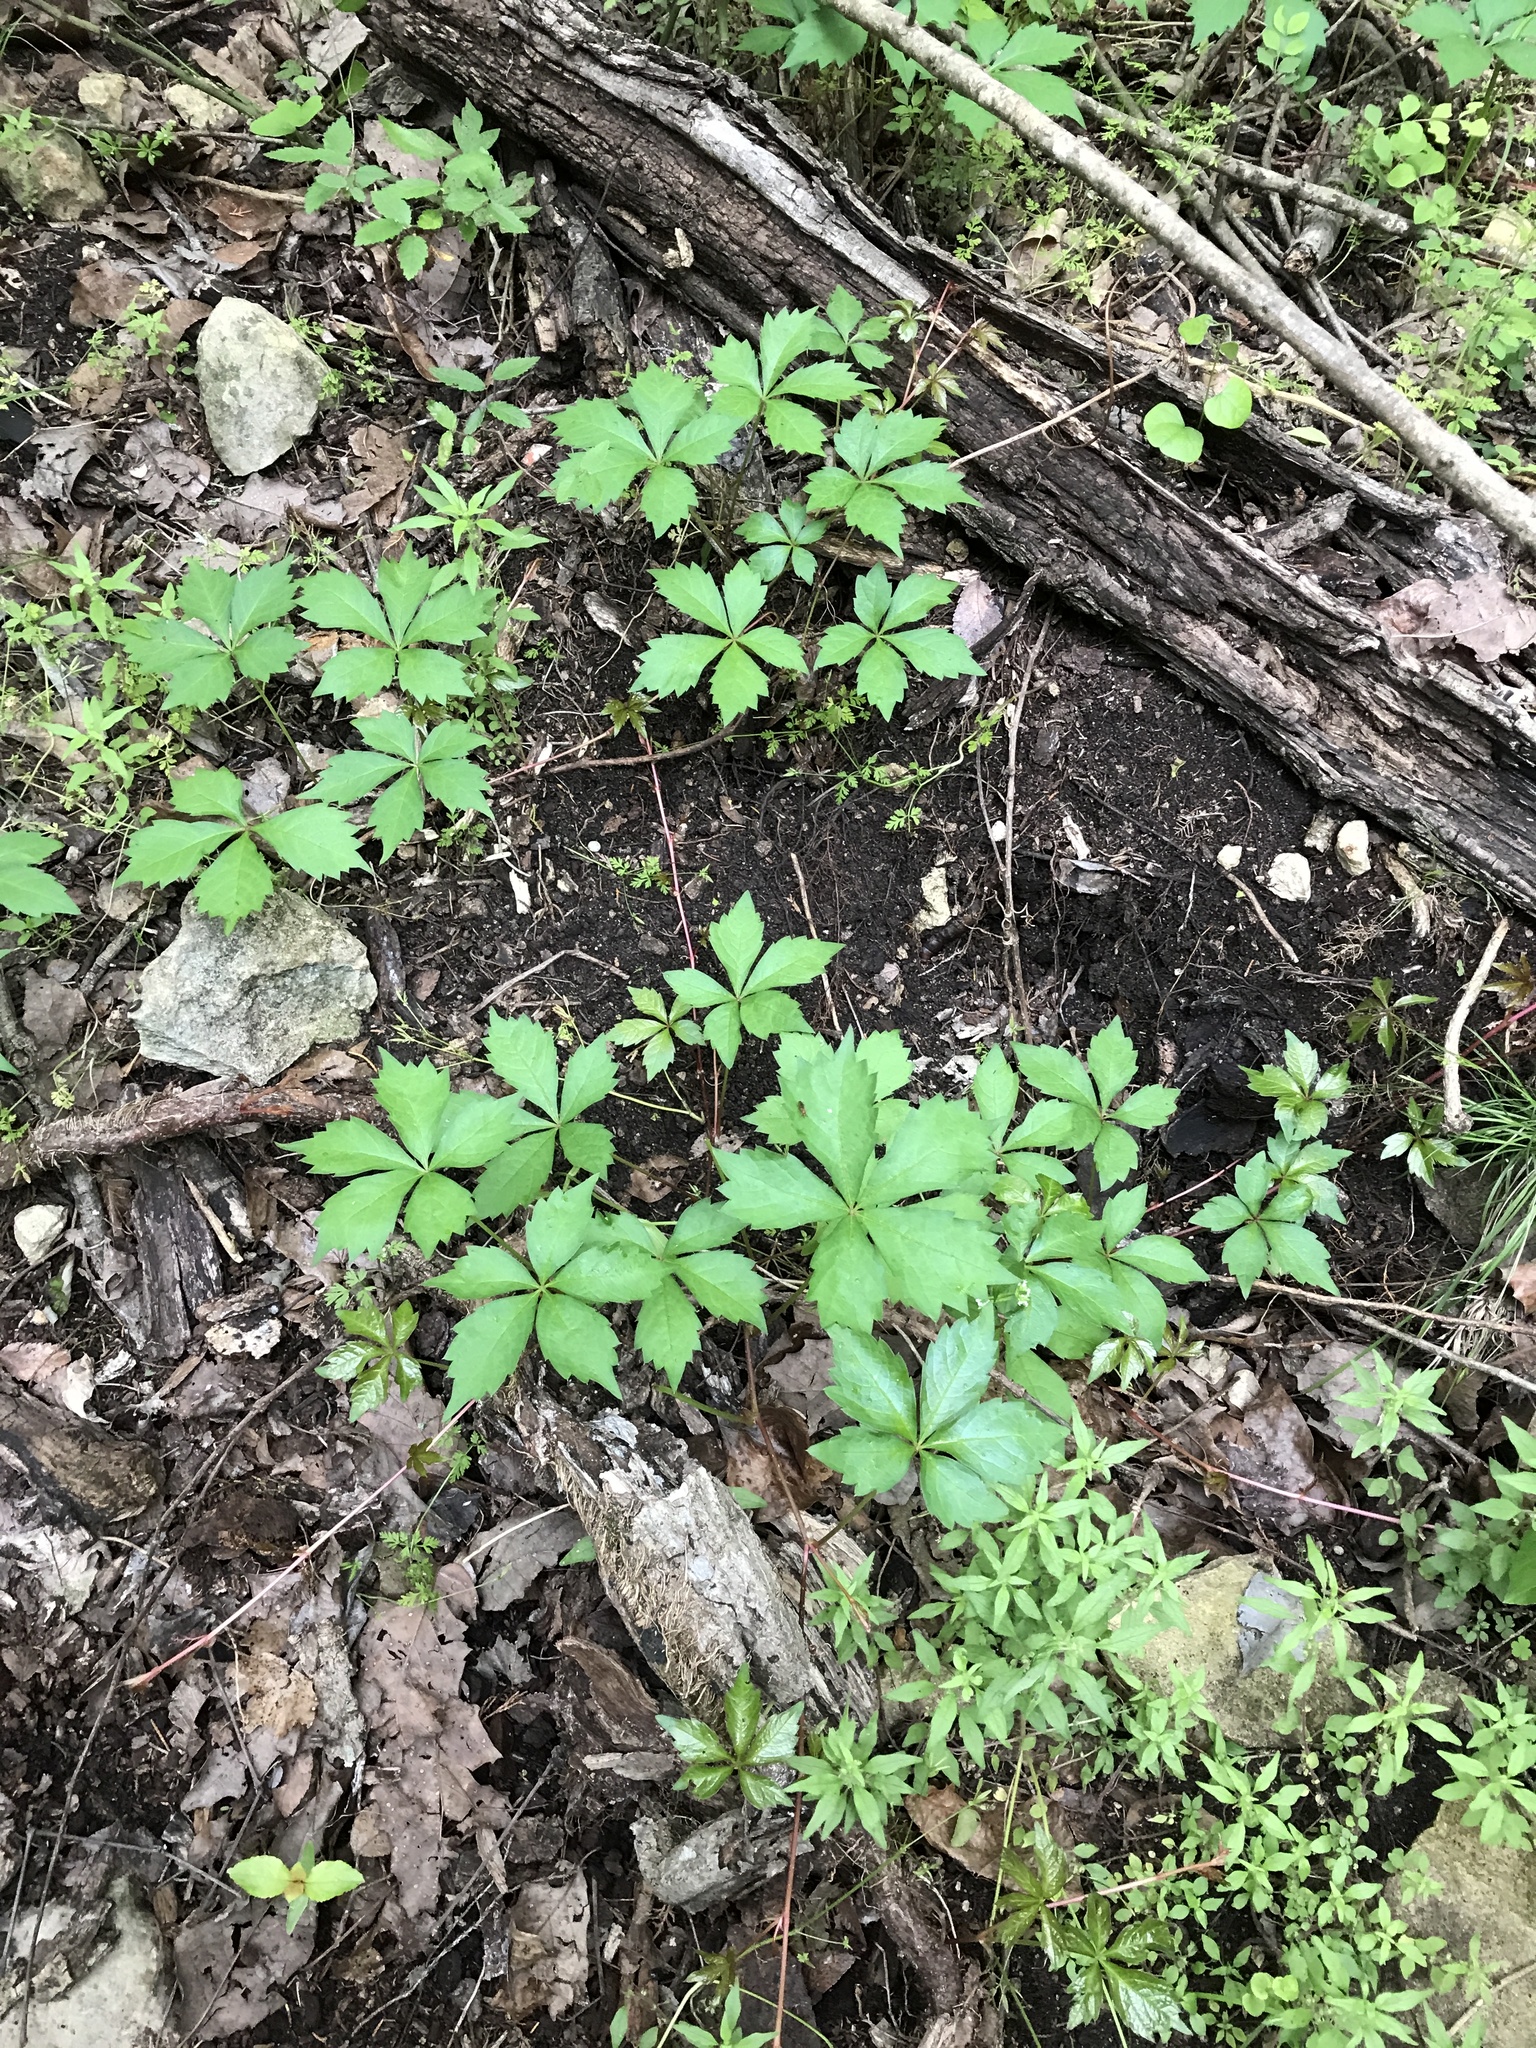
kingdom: Plantae
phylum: Tracheophyta
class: Magnoliopsida
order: Vitales
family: Vitaceae
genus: Parthenocissus
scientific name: Parthenocissus quinquefolia
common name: Virginia-creeper
